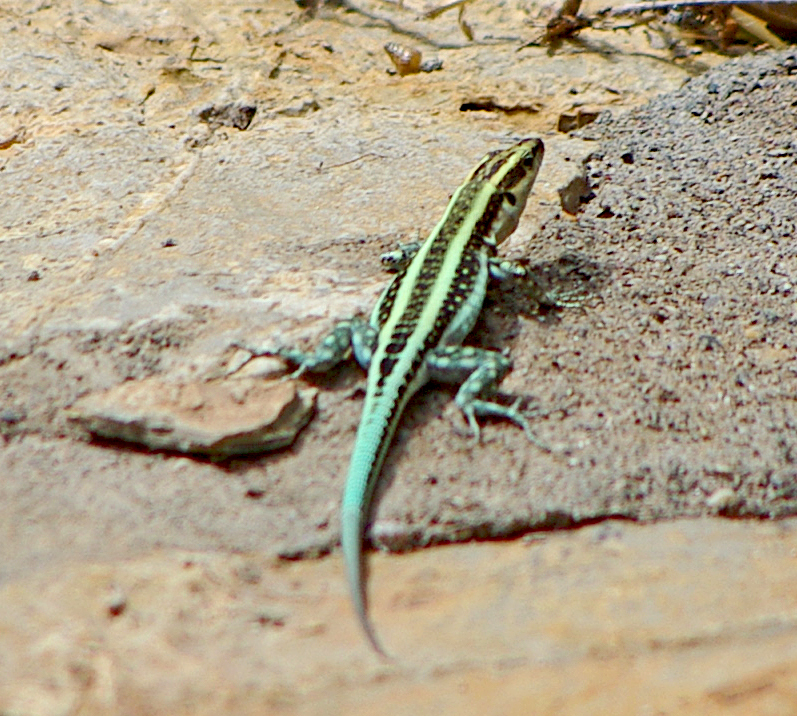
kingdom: Animalia
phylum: Chordata
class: Squamata
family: Lacertidae
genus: Anatololacerta
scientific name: Anatololacerta pelasgiana
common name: Pelasgian rock lizard
